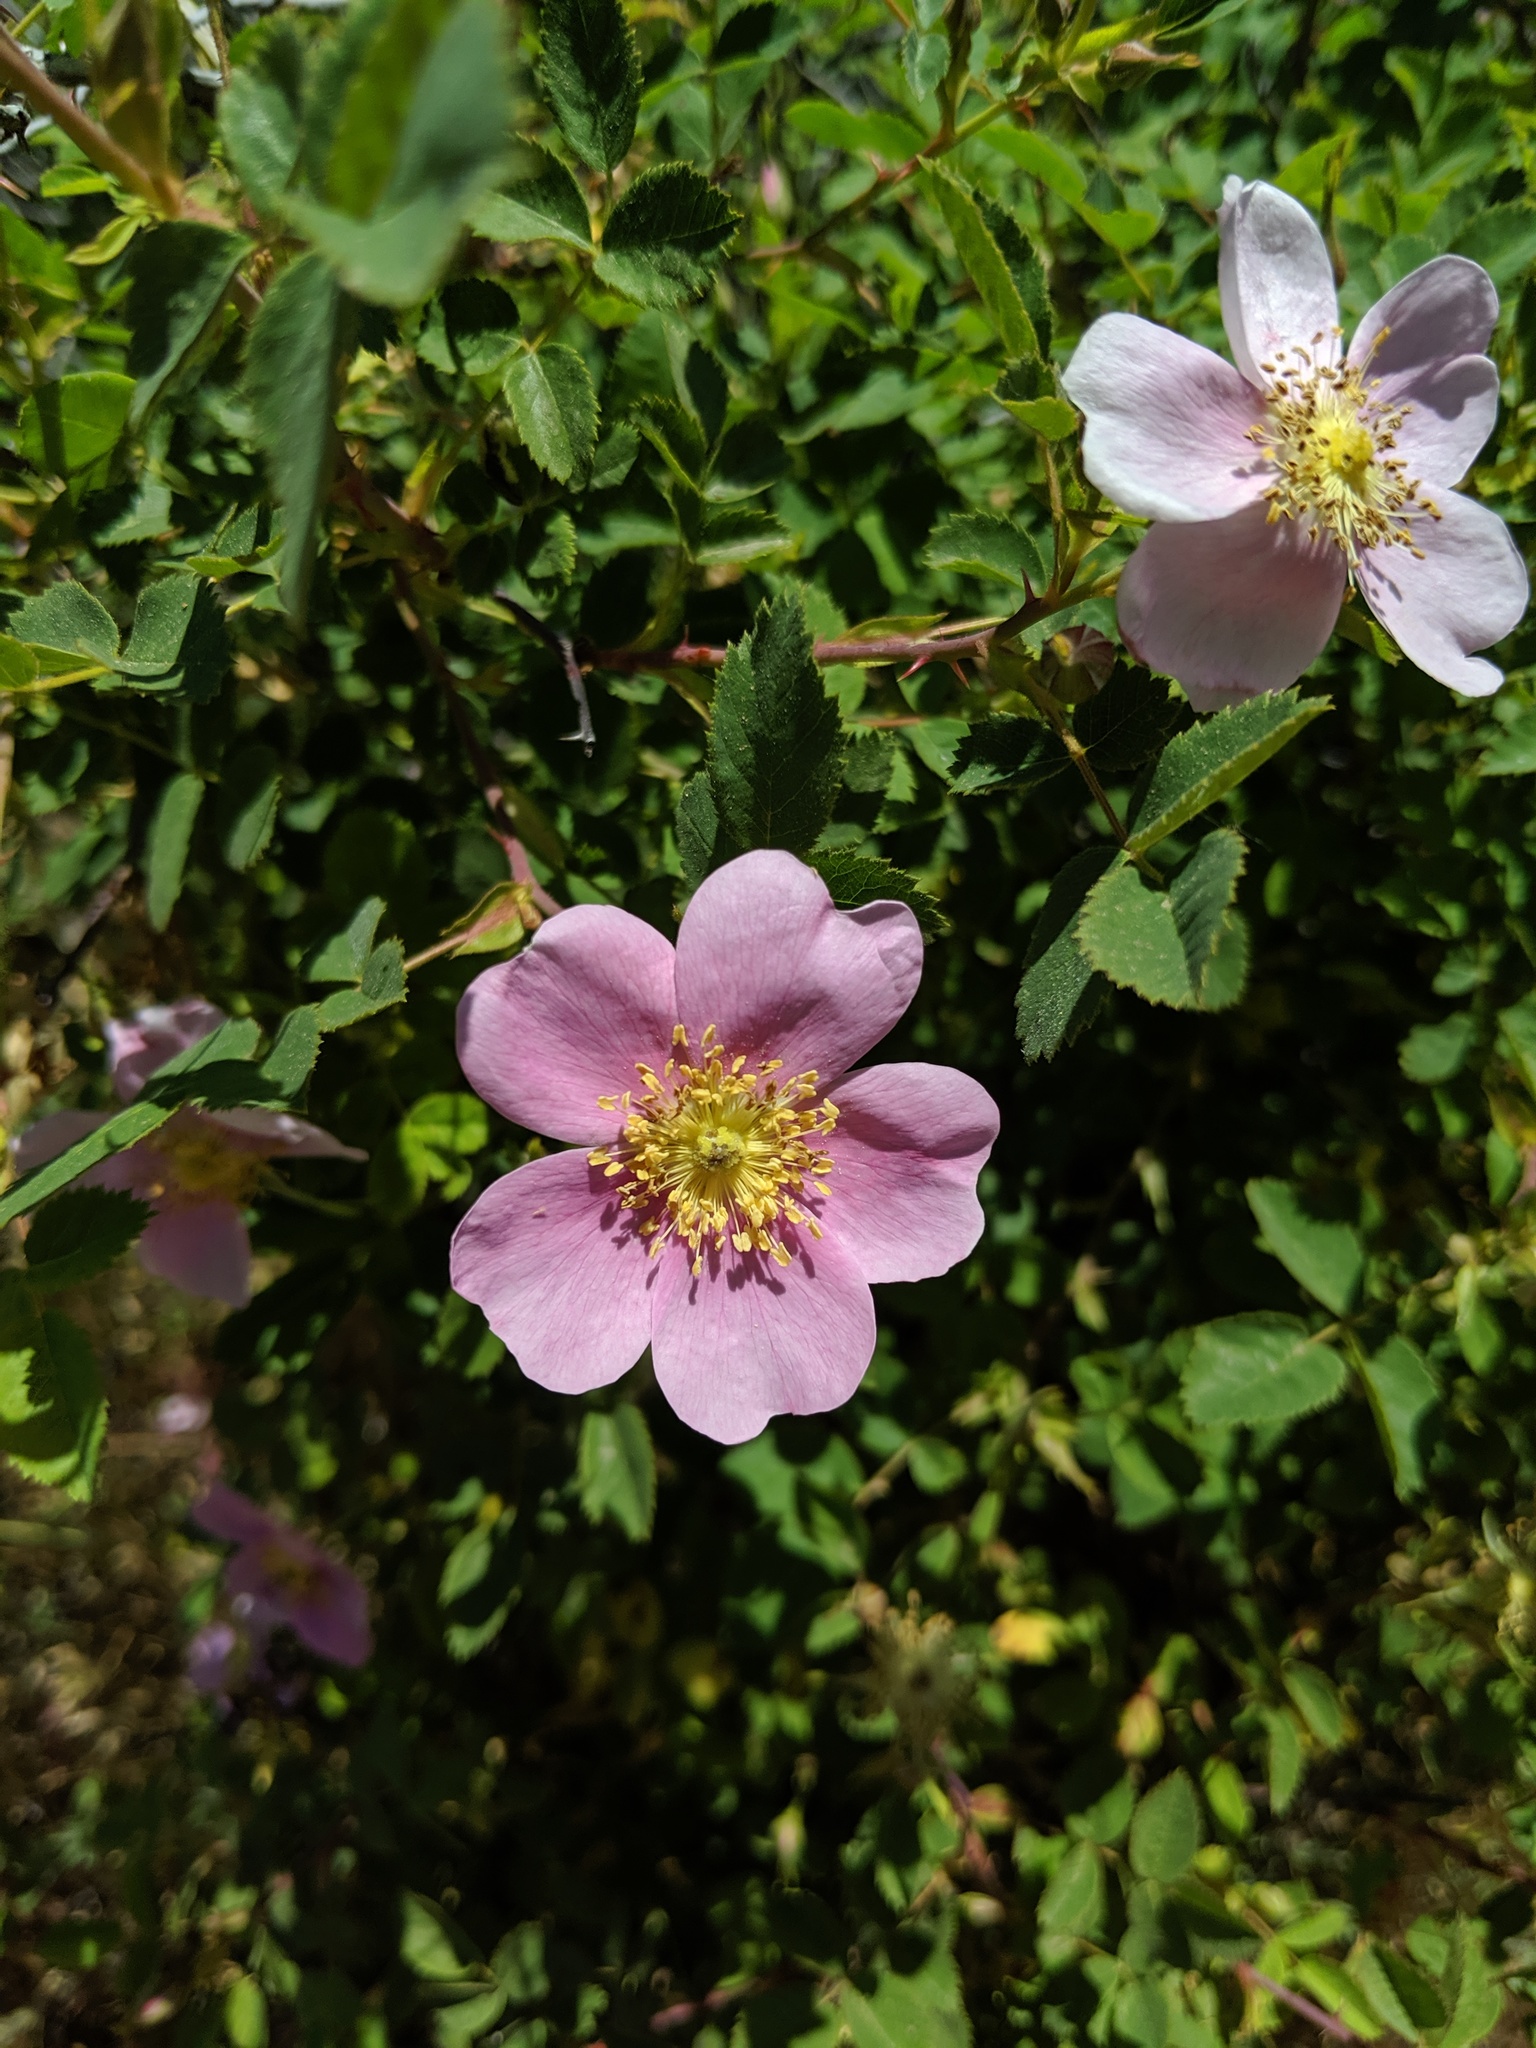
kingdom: Plantae
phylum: Tracheophyta
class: Magnoliopsida
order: Rosales
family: Rosaceae
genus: Rosa
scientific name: Rosa californica
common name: California rose
